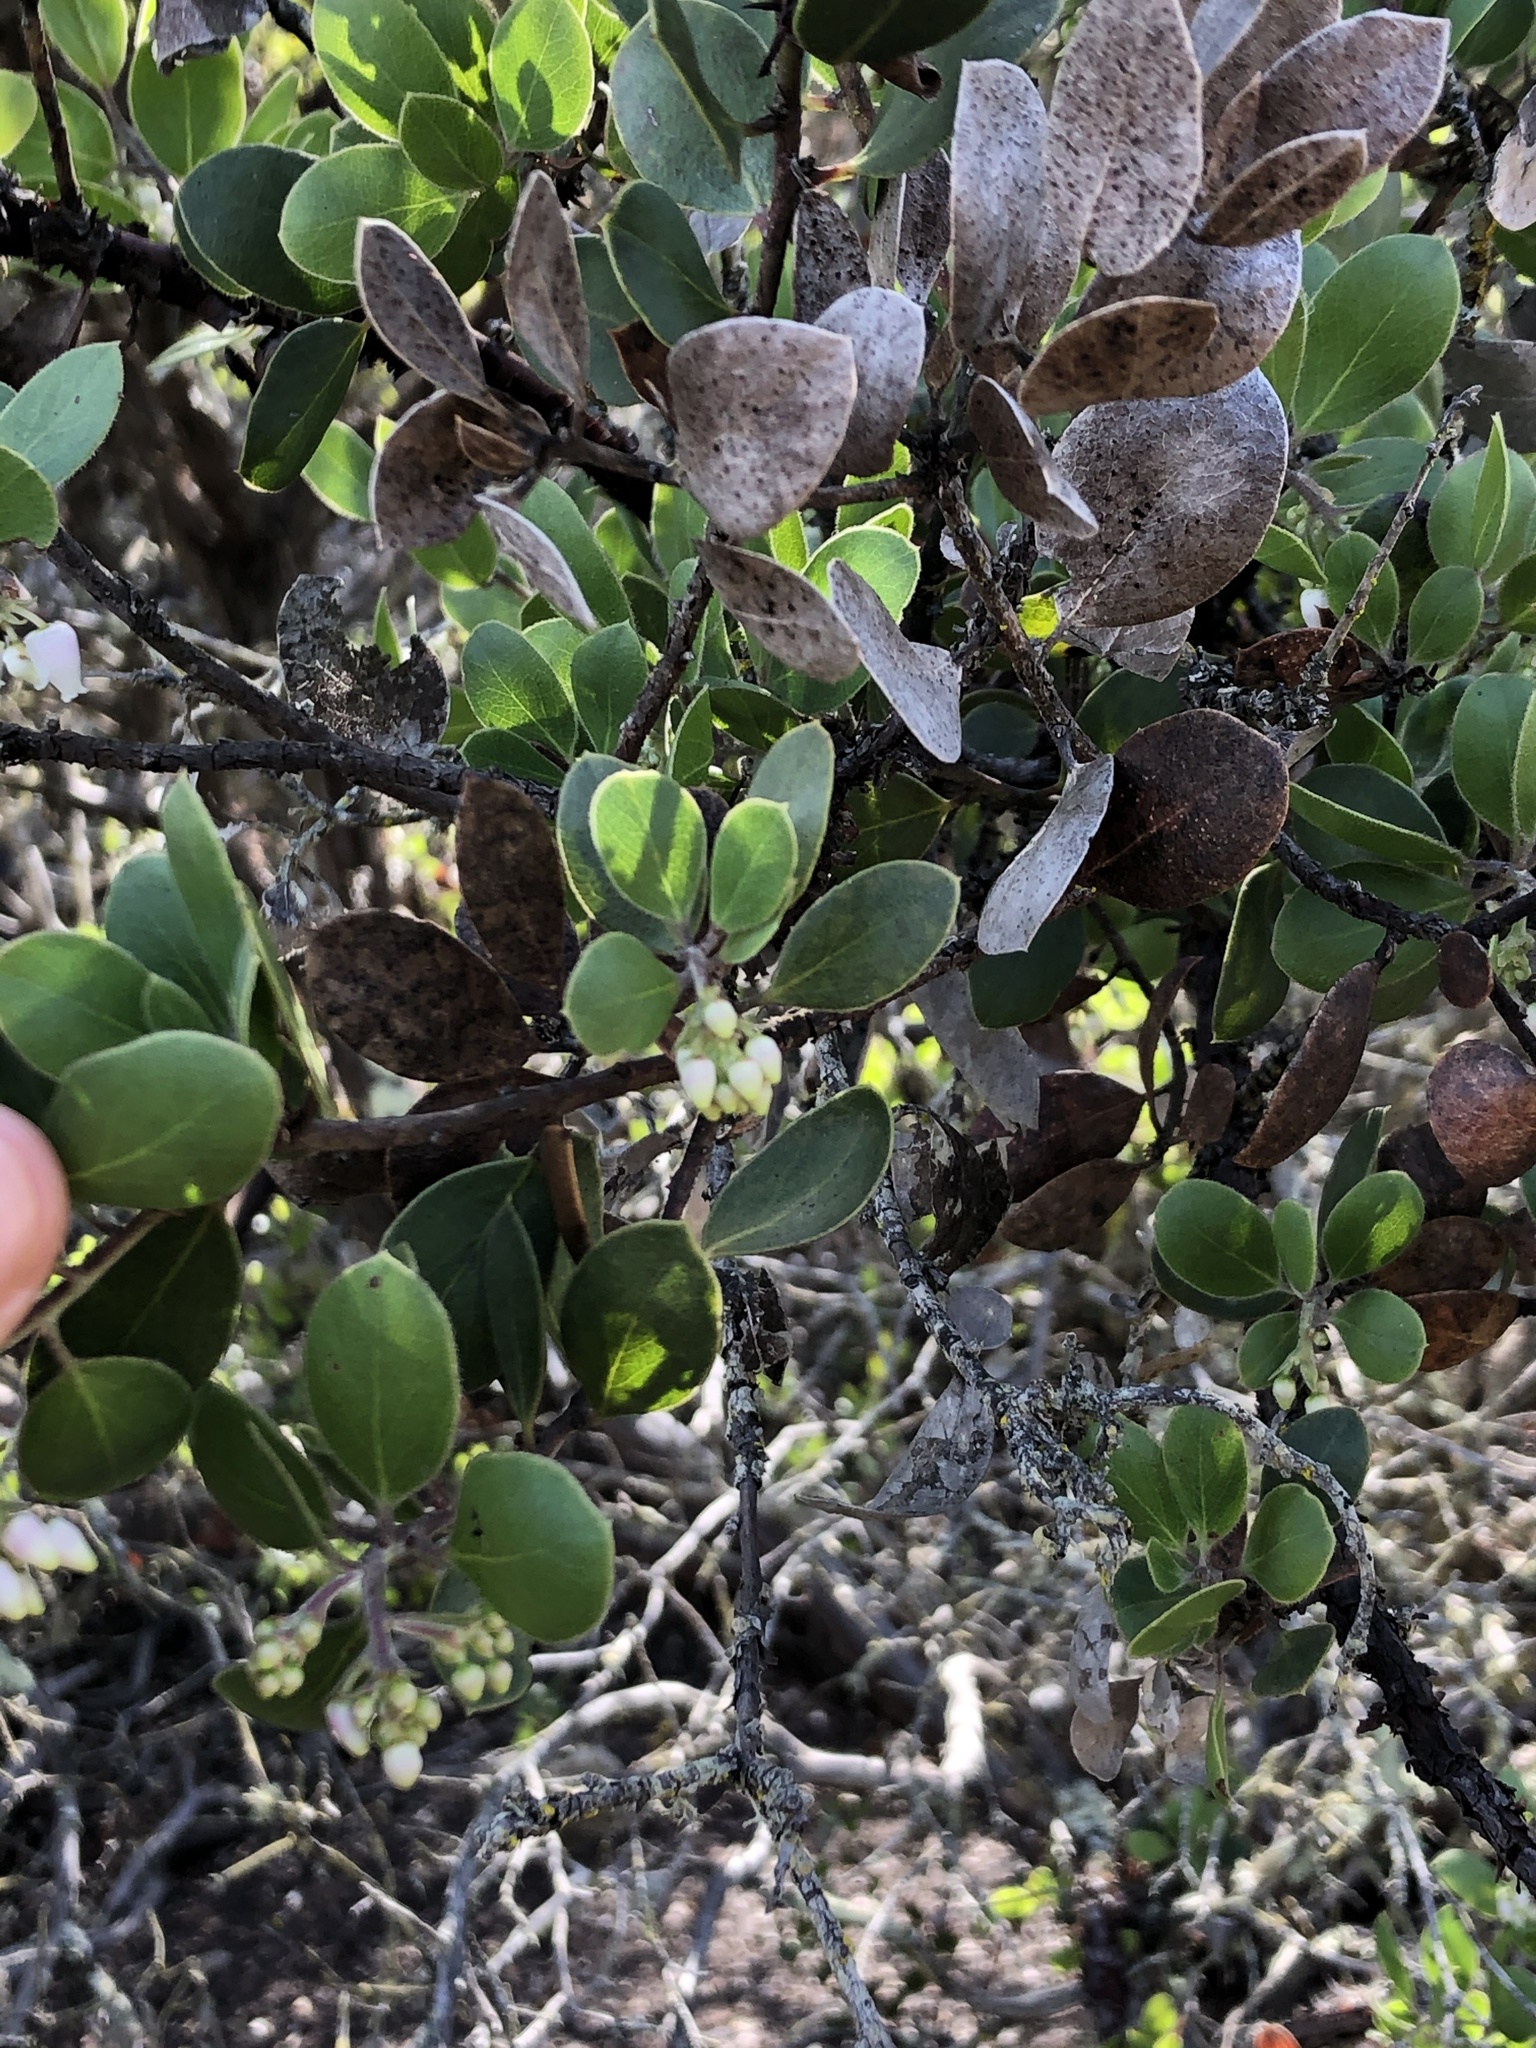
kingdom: Plantae
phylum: Tracheophyta
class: Magnoliopsida
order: Ericales
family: Ericaceae
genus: Arctostaphylos
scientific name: Arctostaphylos rudis
